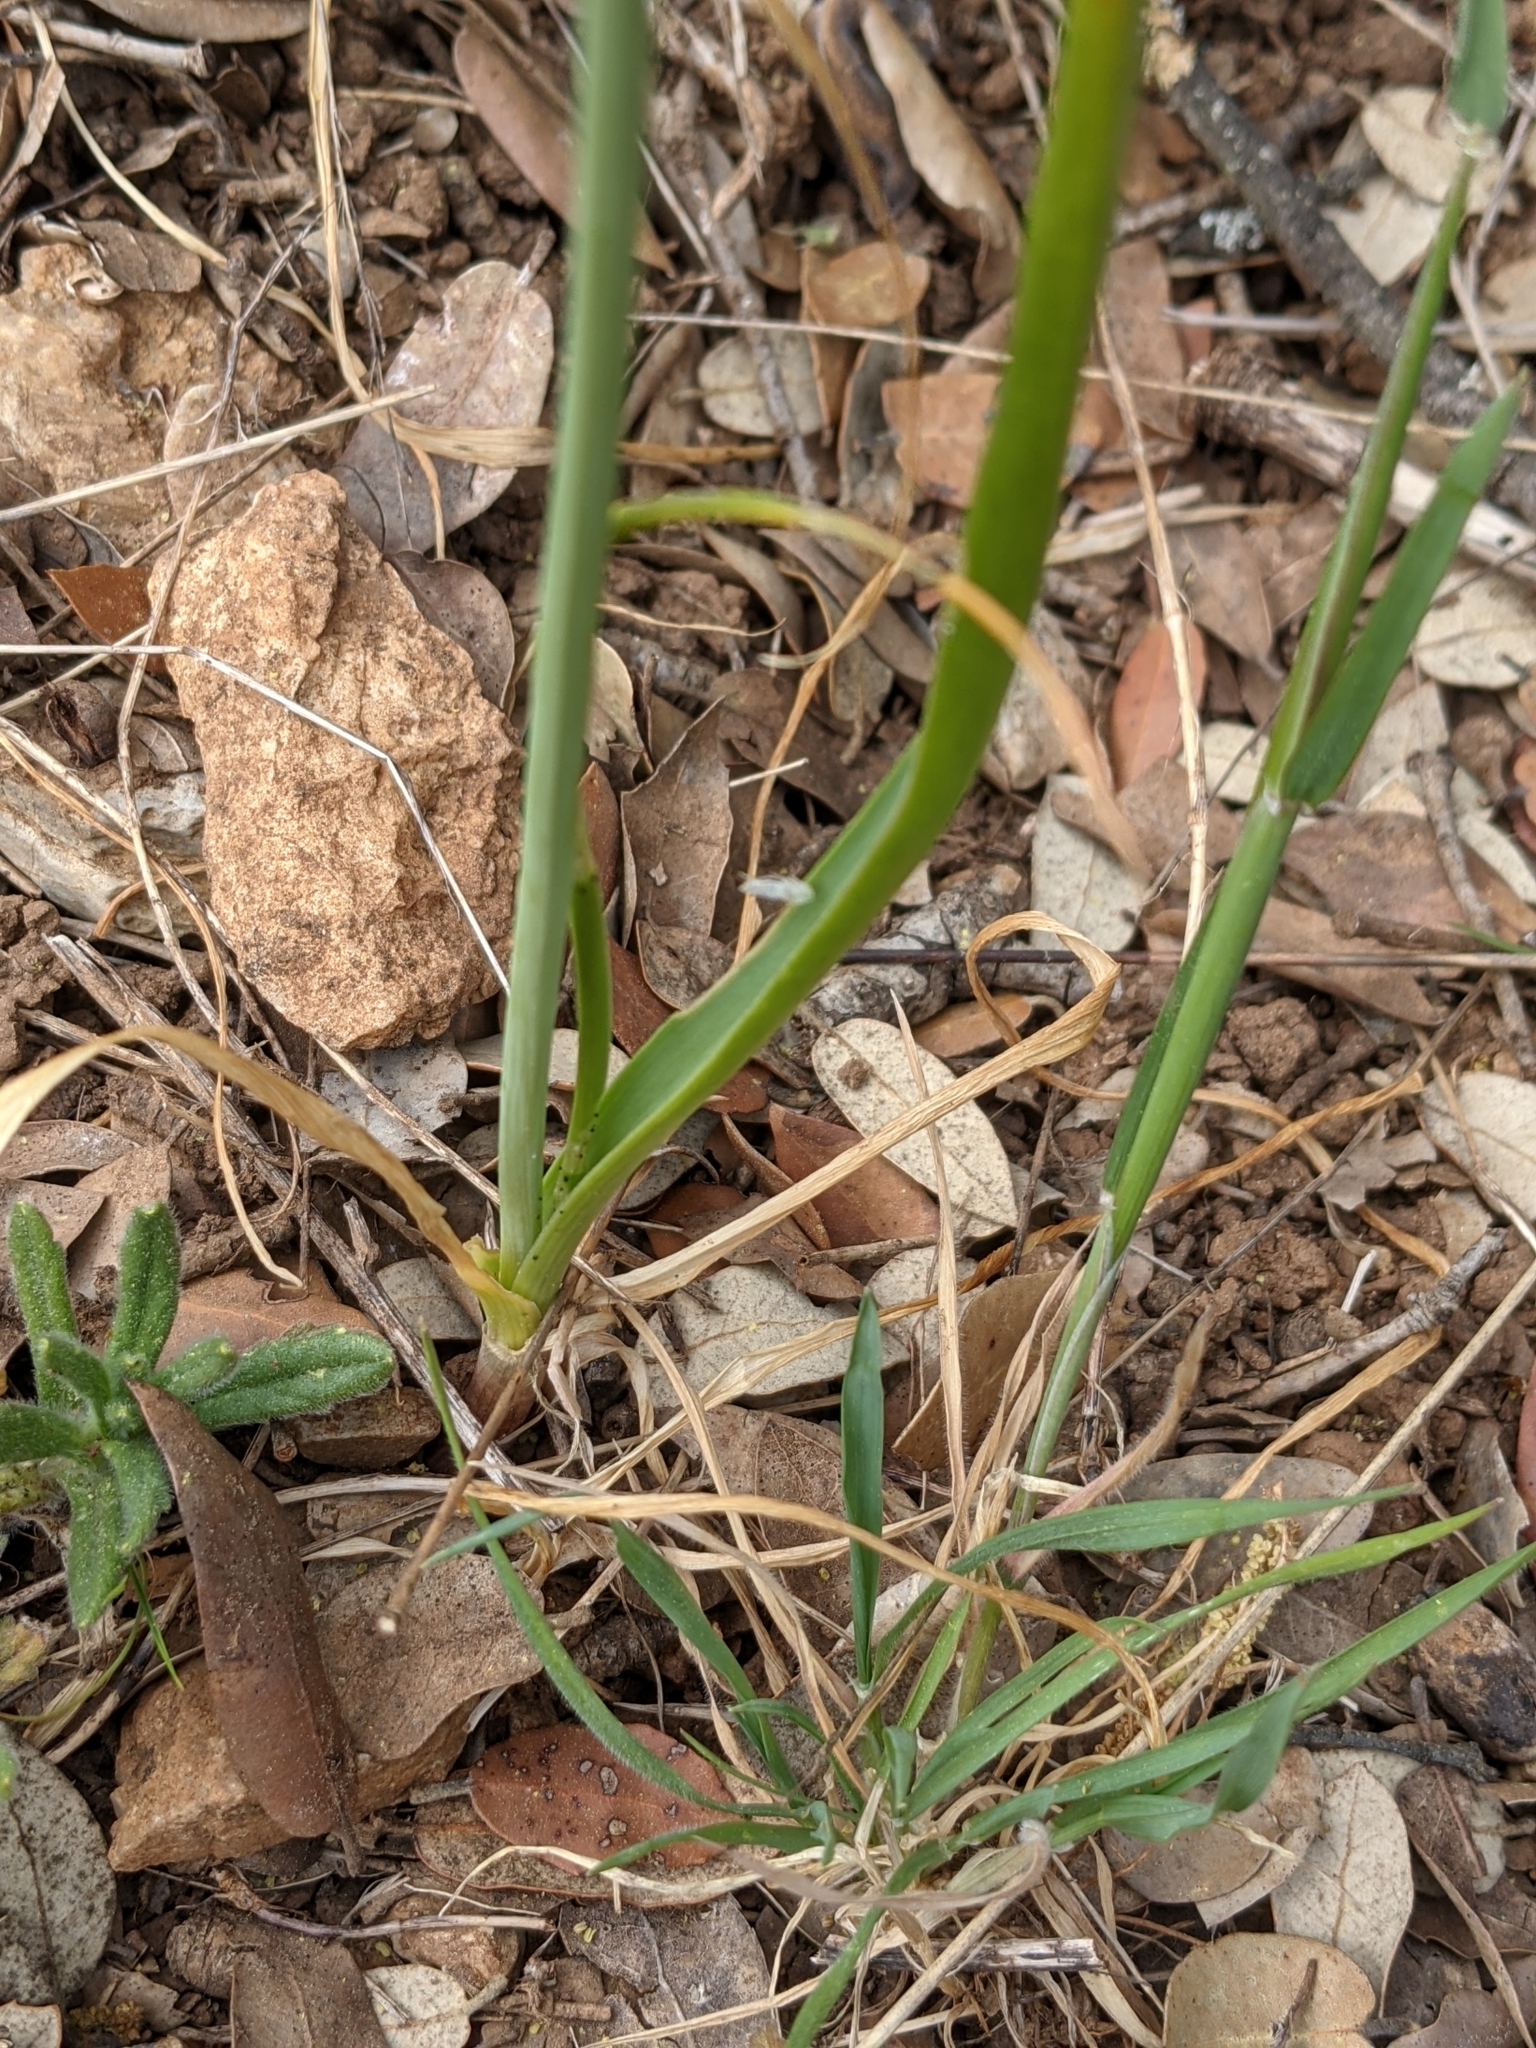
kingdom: Plantae
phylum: Tracheophyta
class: Liliopsida
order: Asparagales
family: Amaryllidaceae
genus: Allium
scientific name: Allium roseum
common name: Rosy garlic
